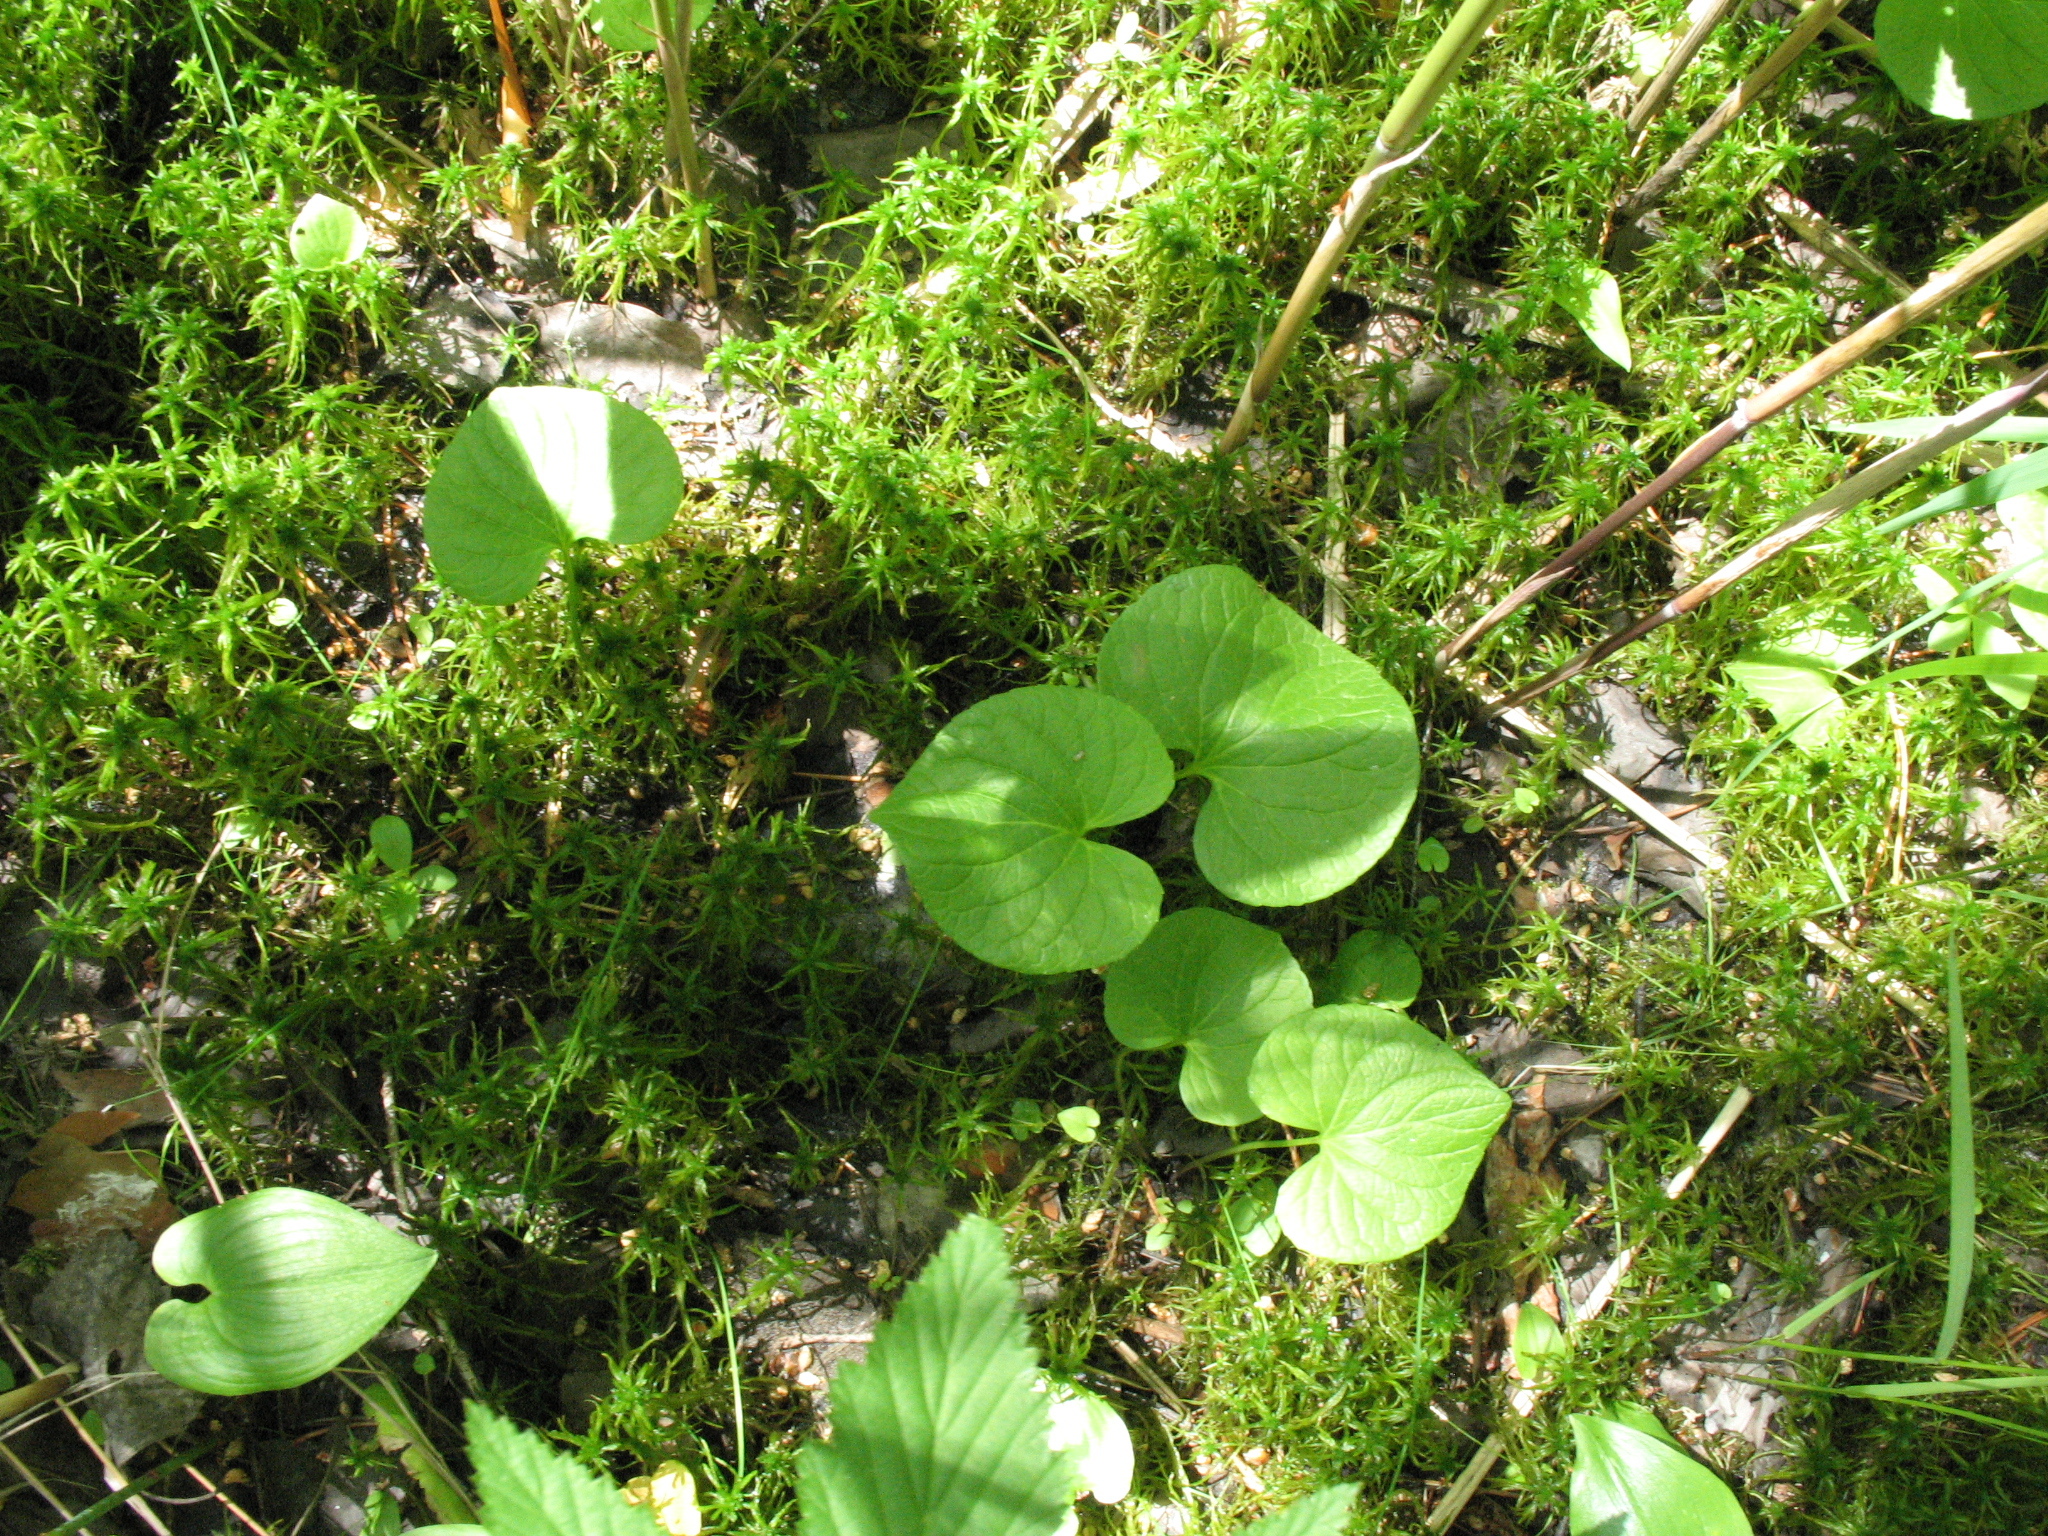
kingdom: Plantae
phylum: Tracheophyta
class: Magnoliopsida
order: Malpighiales
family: Violaceae
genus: Viola
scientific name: Viola epipsila
